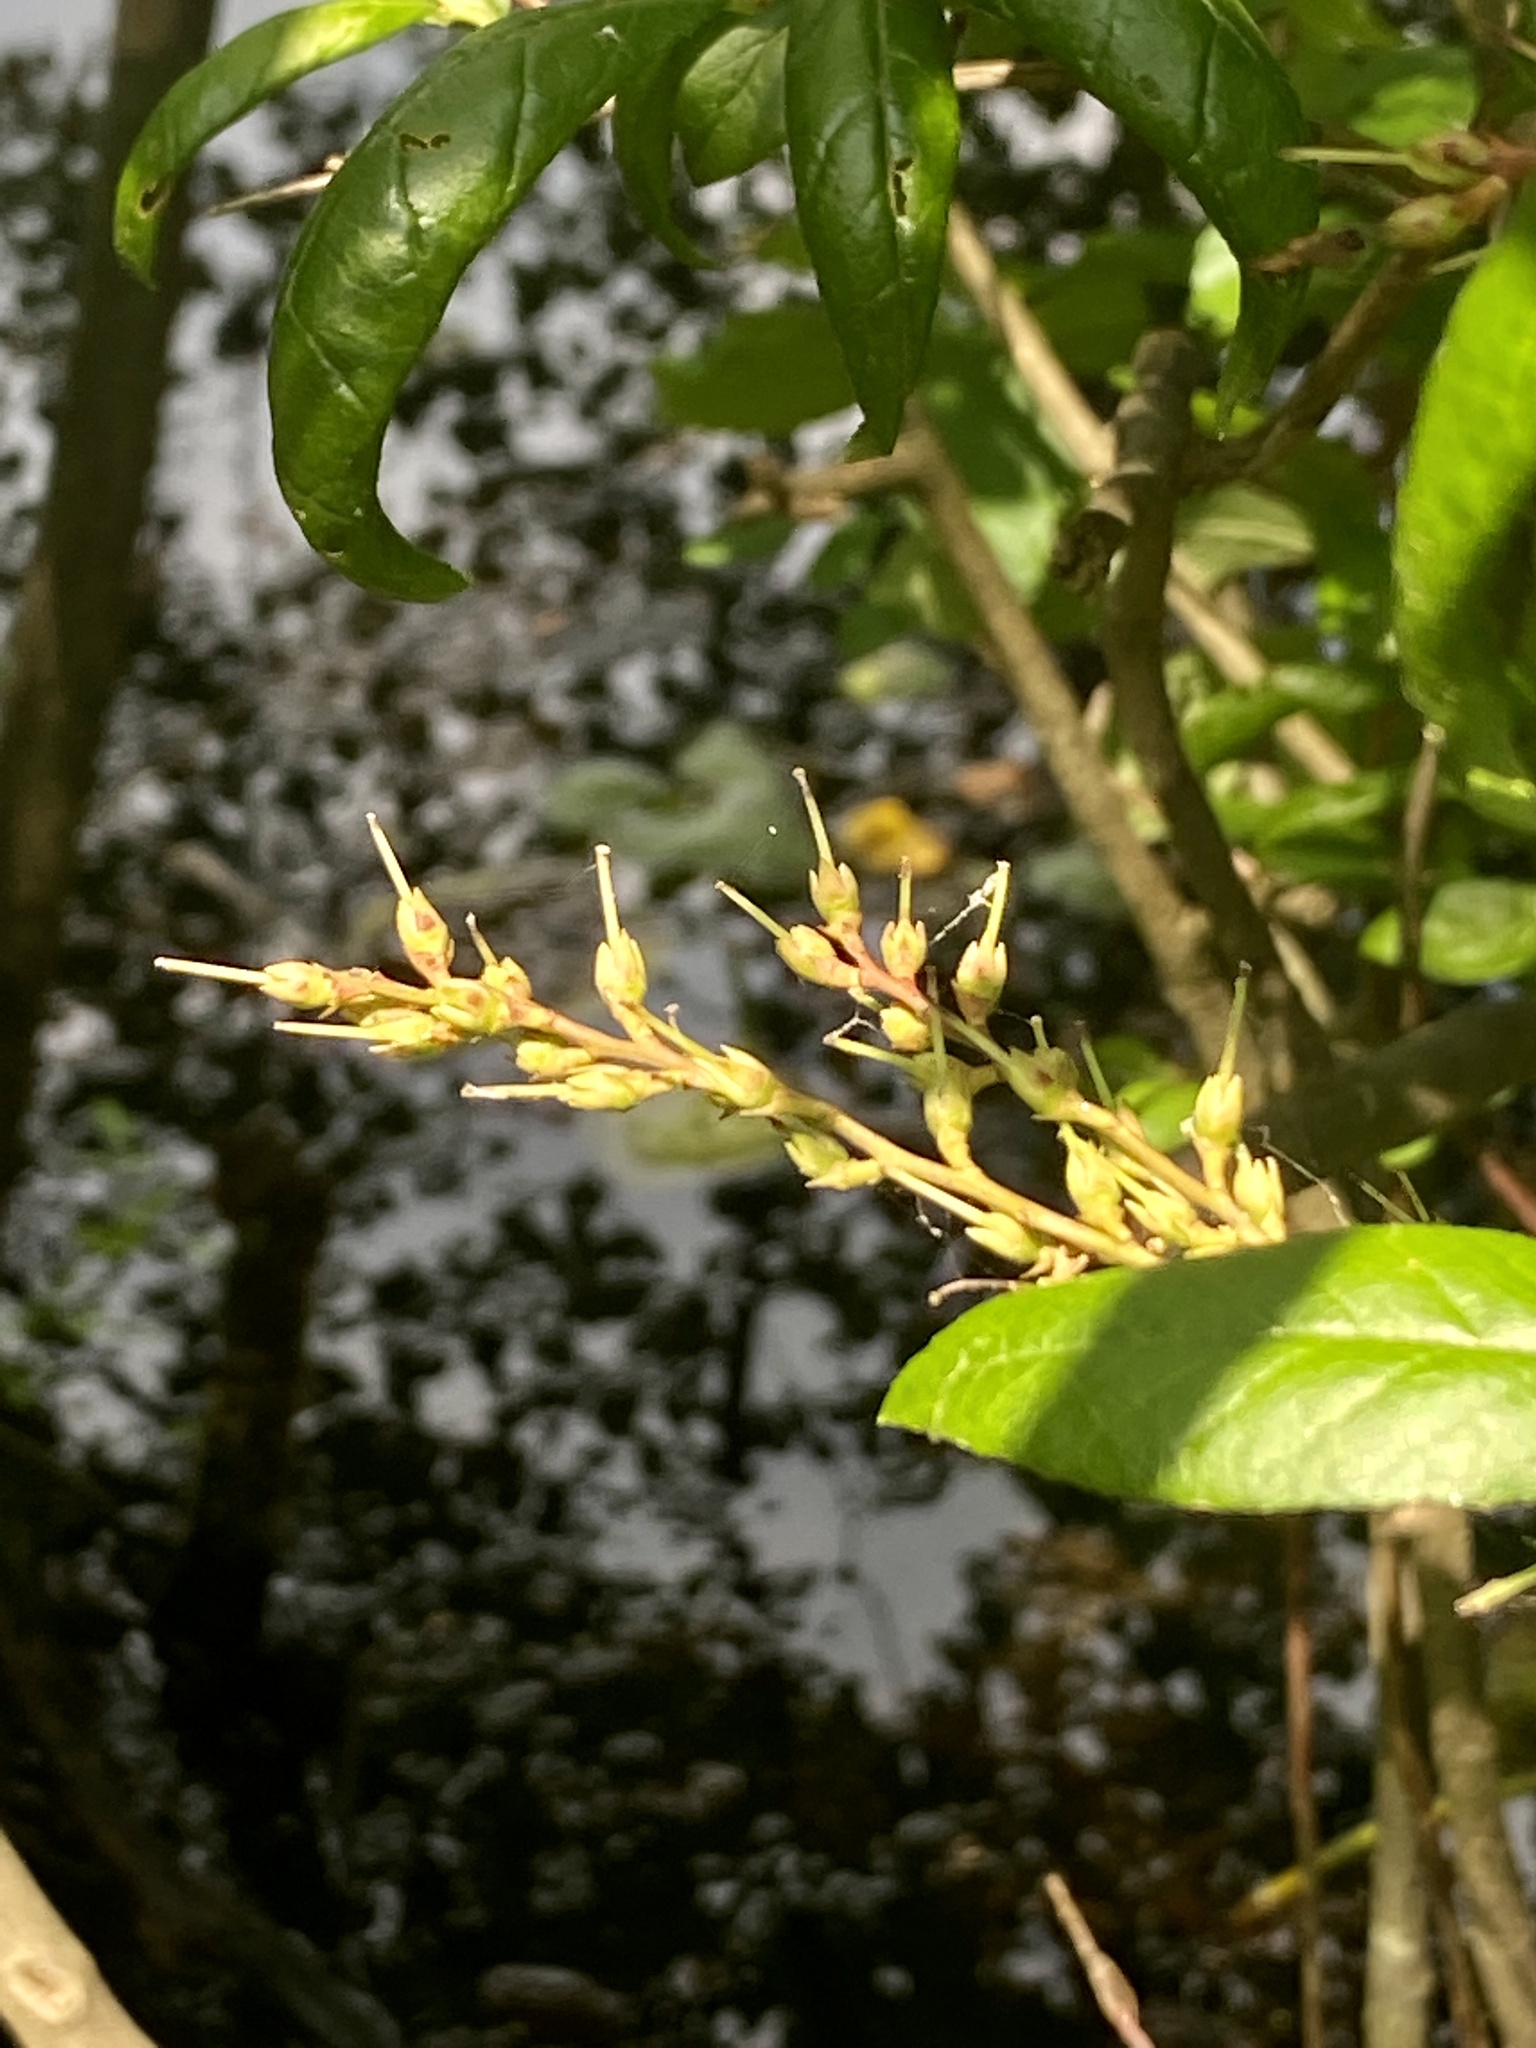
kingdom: Plantae
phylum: Tracheophyta
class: Magnoliopsida
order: Ericales
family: Ericaceae
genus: Eubotrys
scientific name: Eubotrys racemosa
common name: Fetterbush
